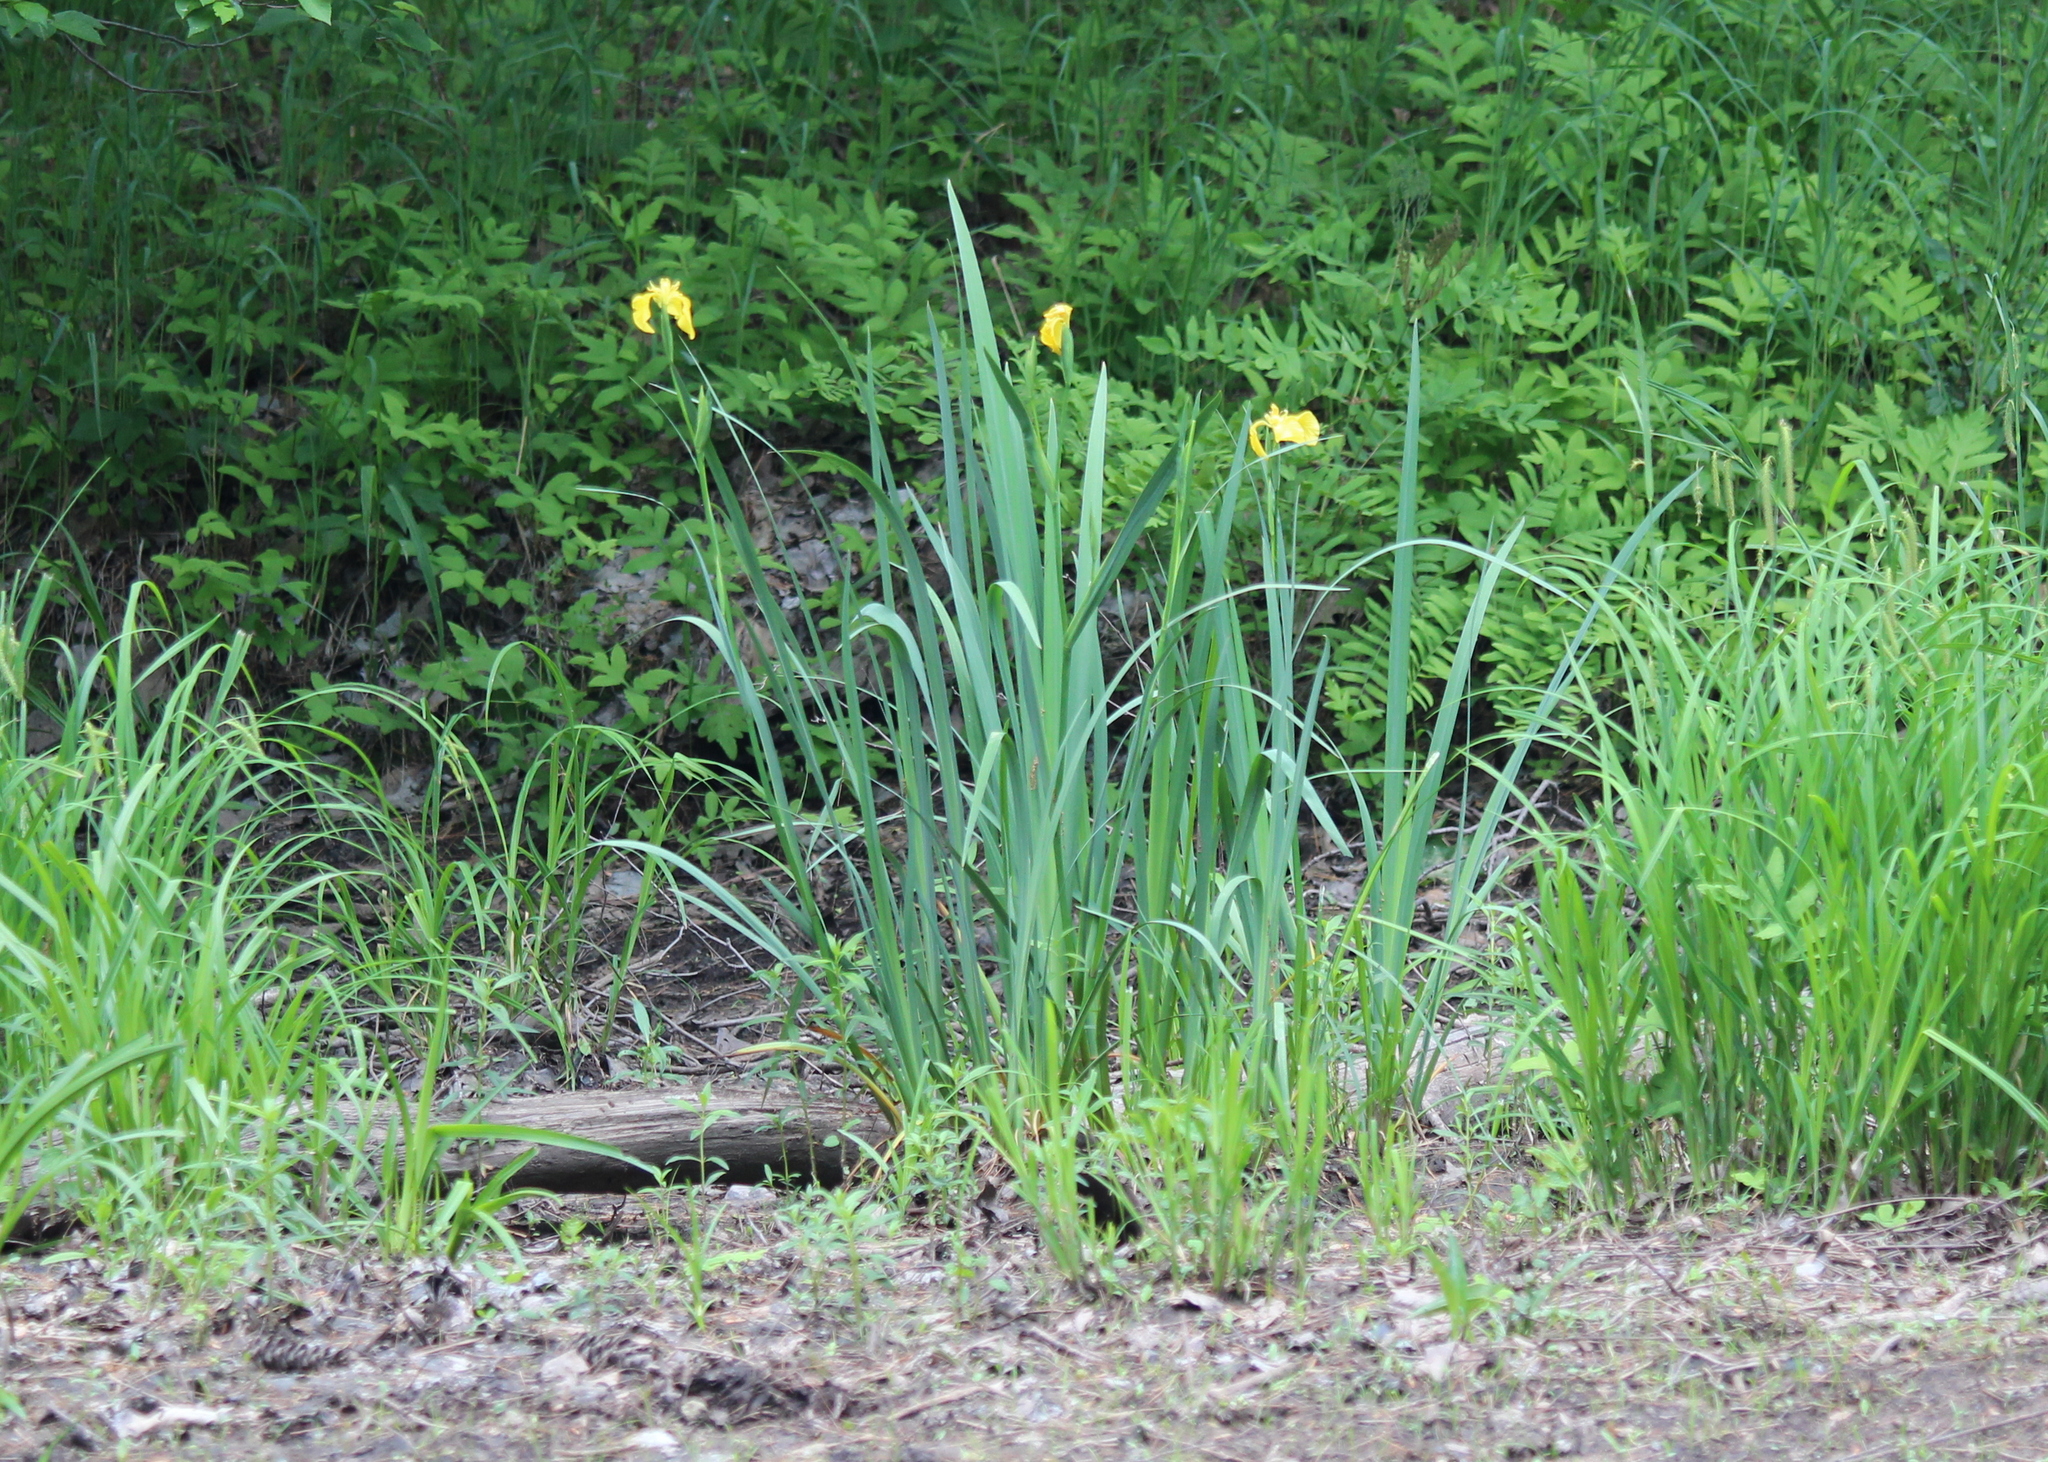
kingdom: Plantae
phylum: Tracheophyta
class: Liliopsida
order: Asparagales
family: Iridaceae
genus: Iris
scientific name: Iris pseudacorus
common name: Yellow flag
